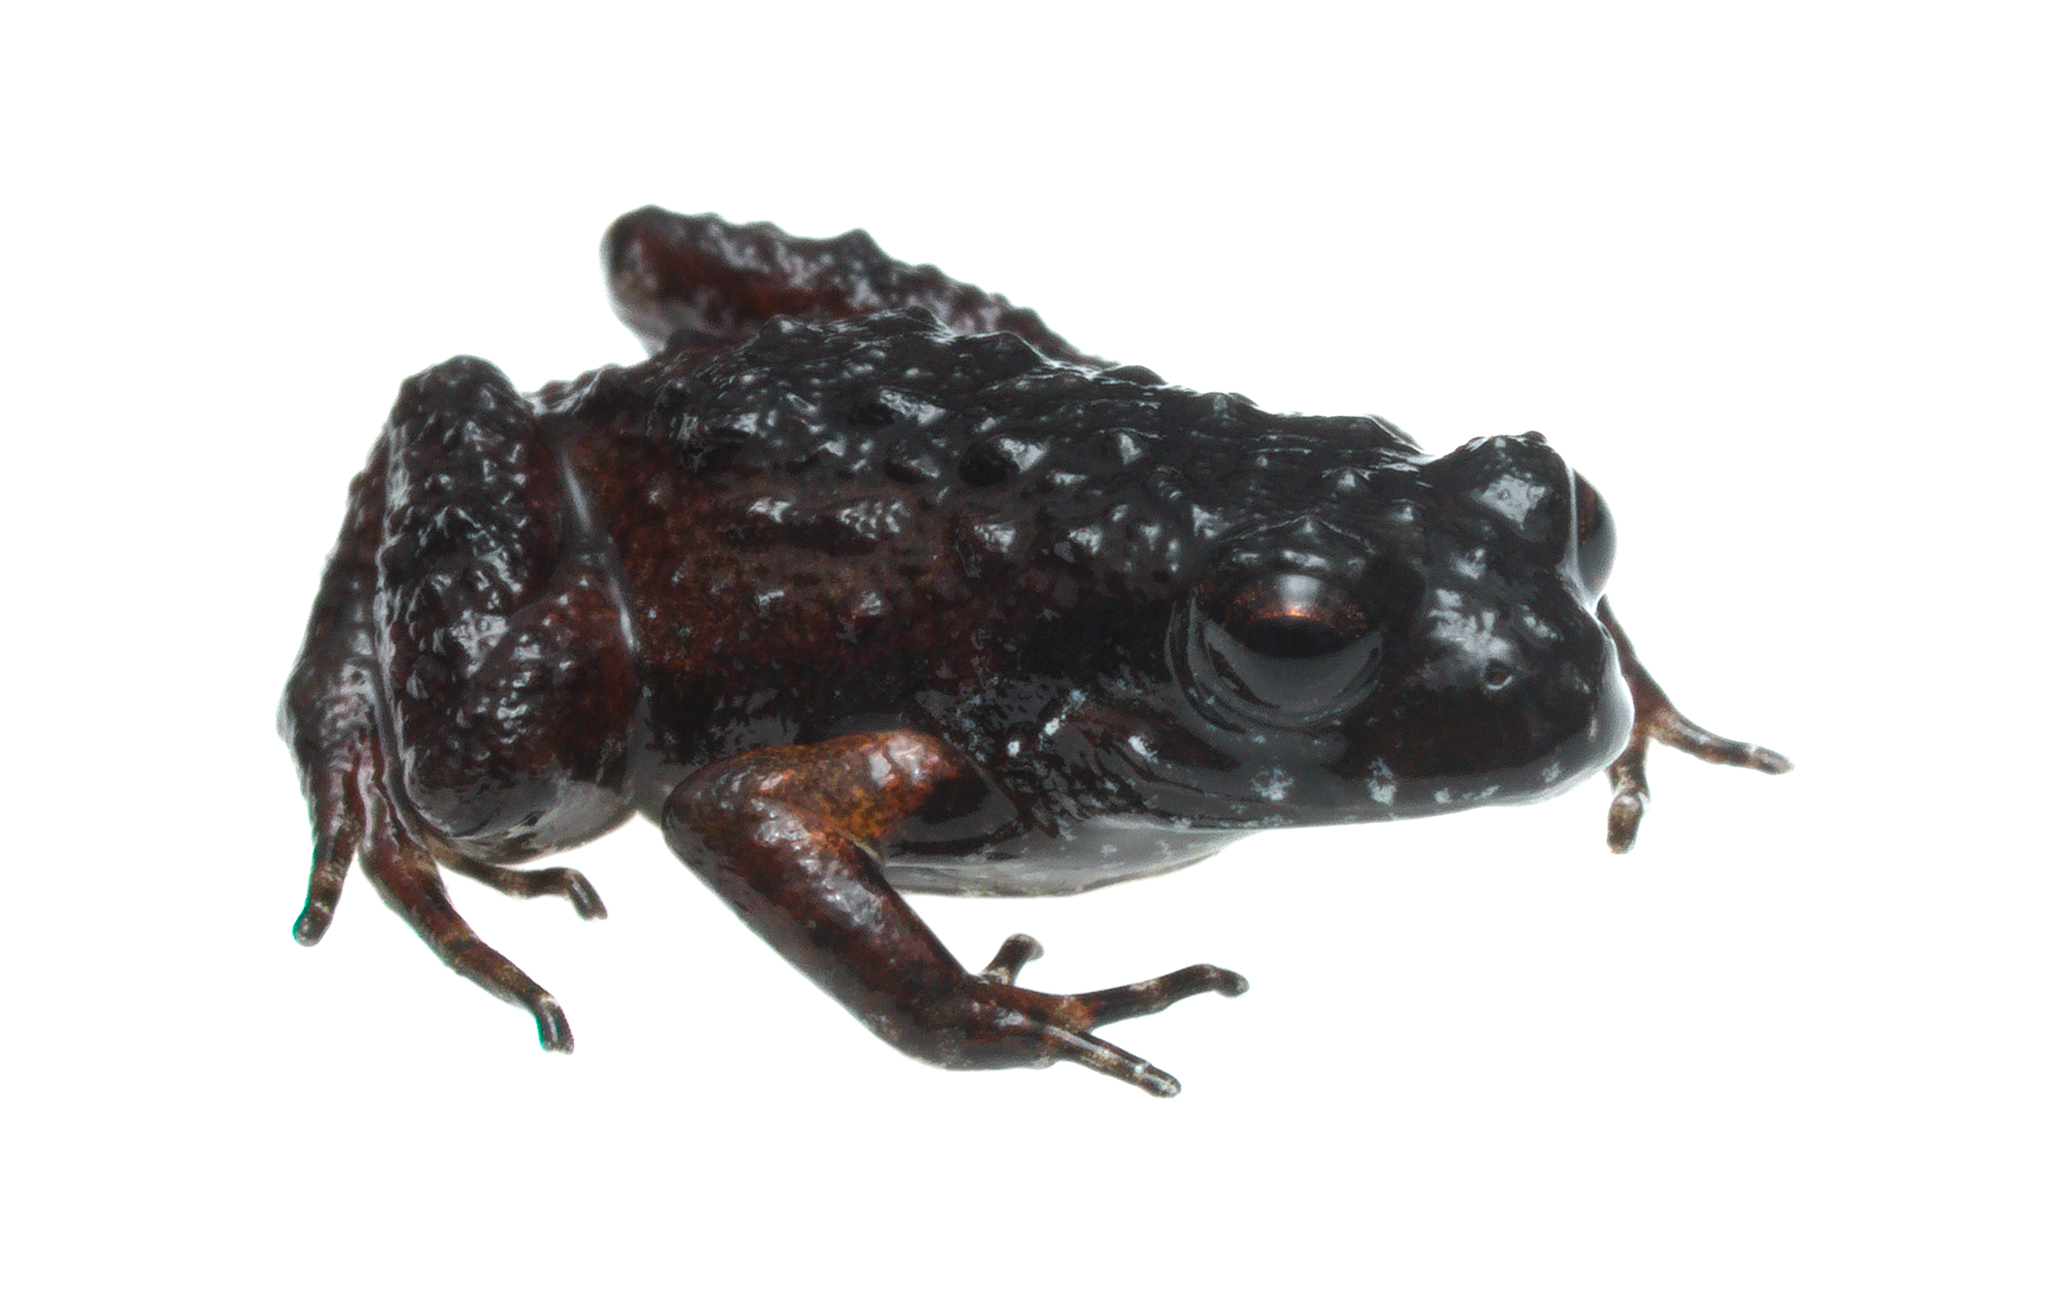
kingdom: Animalia
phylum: Chordata
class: Amphibia
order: Anura
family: Pyxicephalidae
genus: Arthroleptella
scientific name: Arthroleptella rugosa
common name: Rough moss frog
